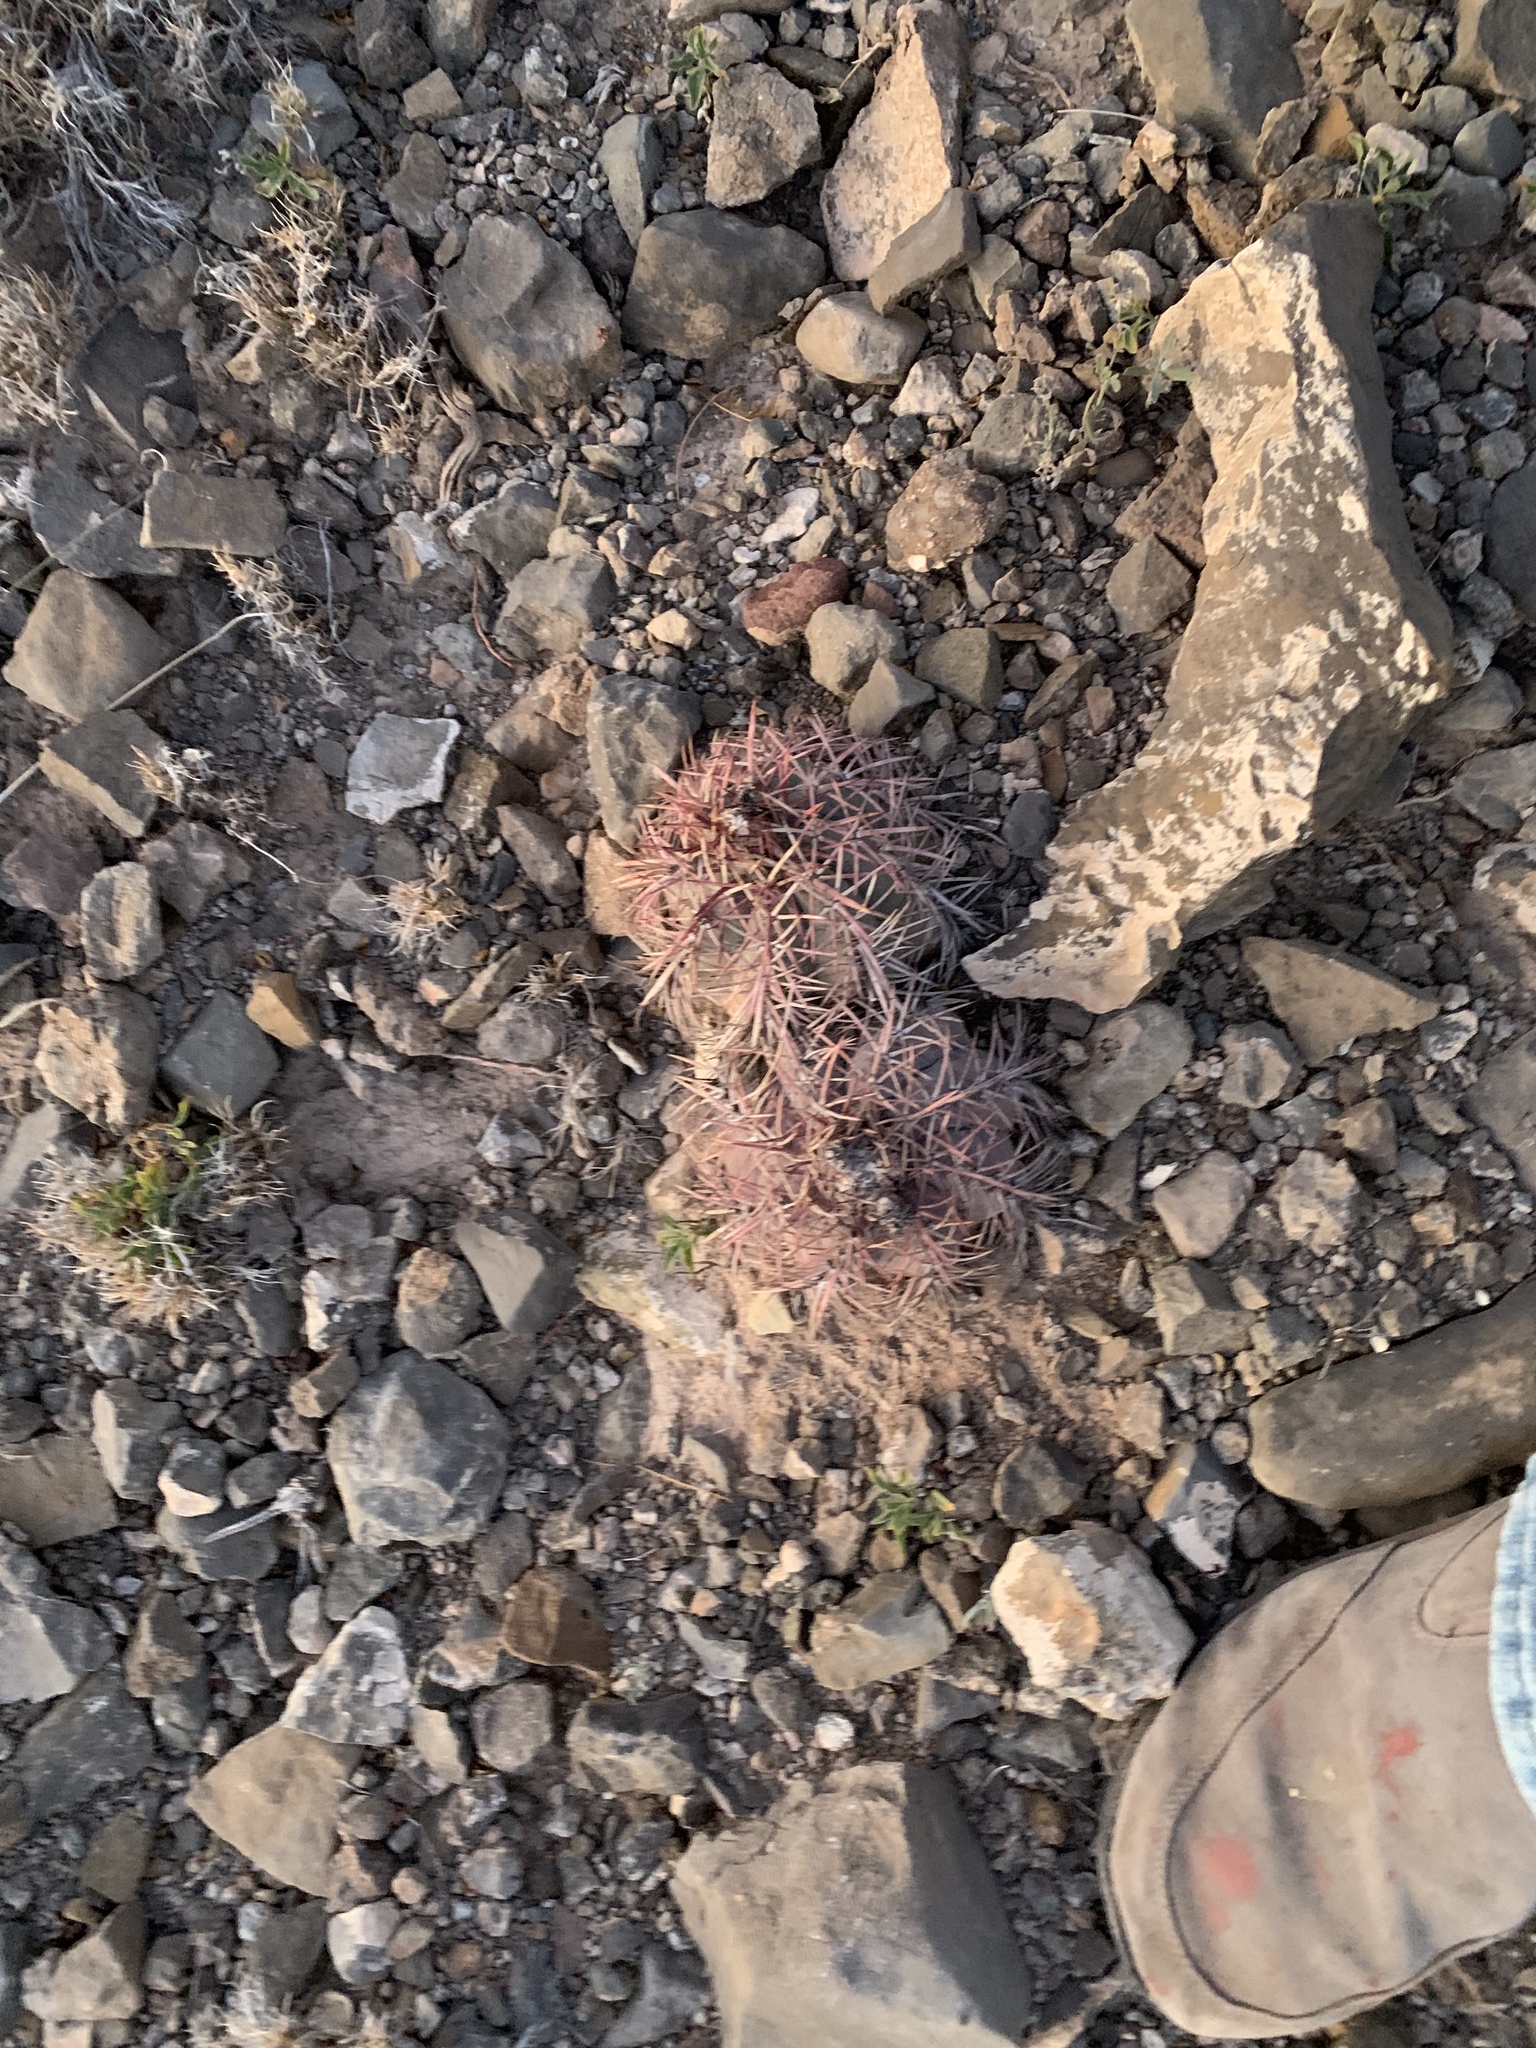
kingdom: Plantae
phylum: Tracheophyta
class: Magnoliopsida
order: Caryophyllales
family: Cactaceae
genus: Echinocactus
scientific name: Echinocactus horizonthalonius
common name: Devilshead
